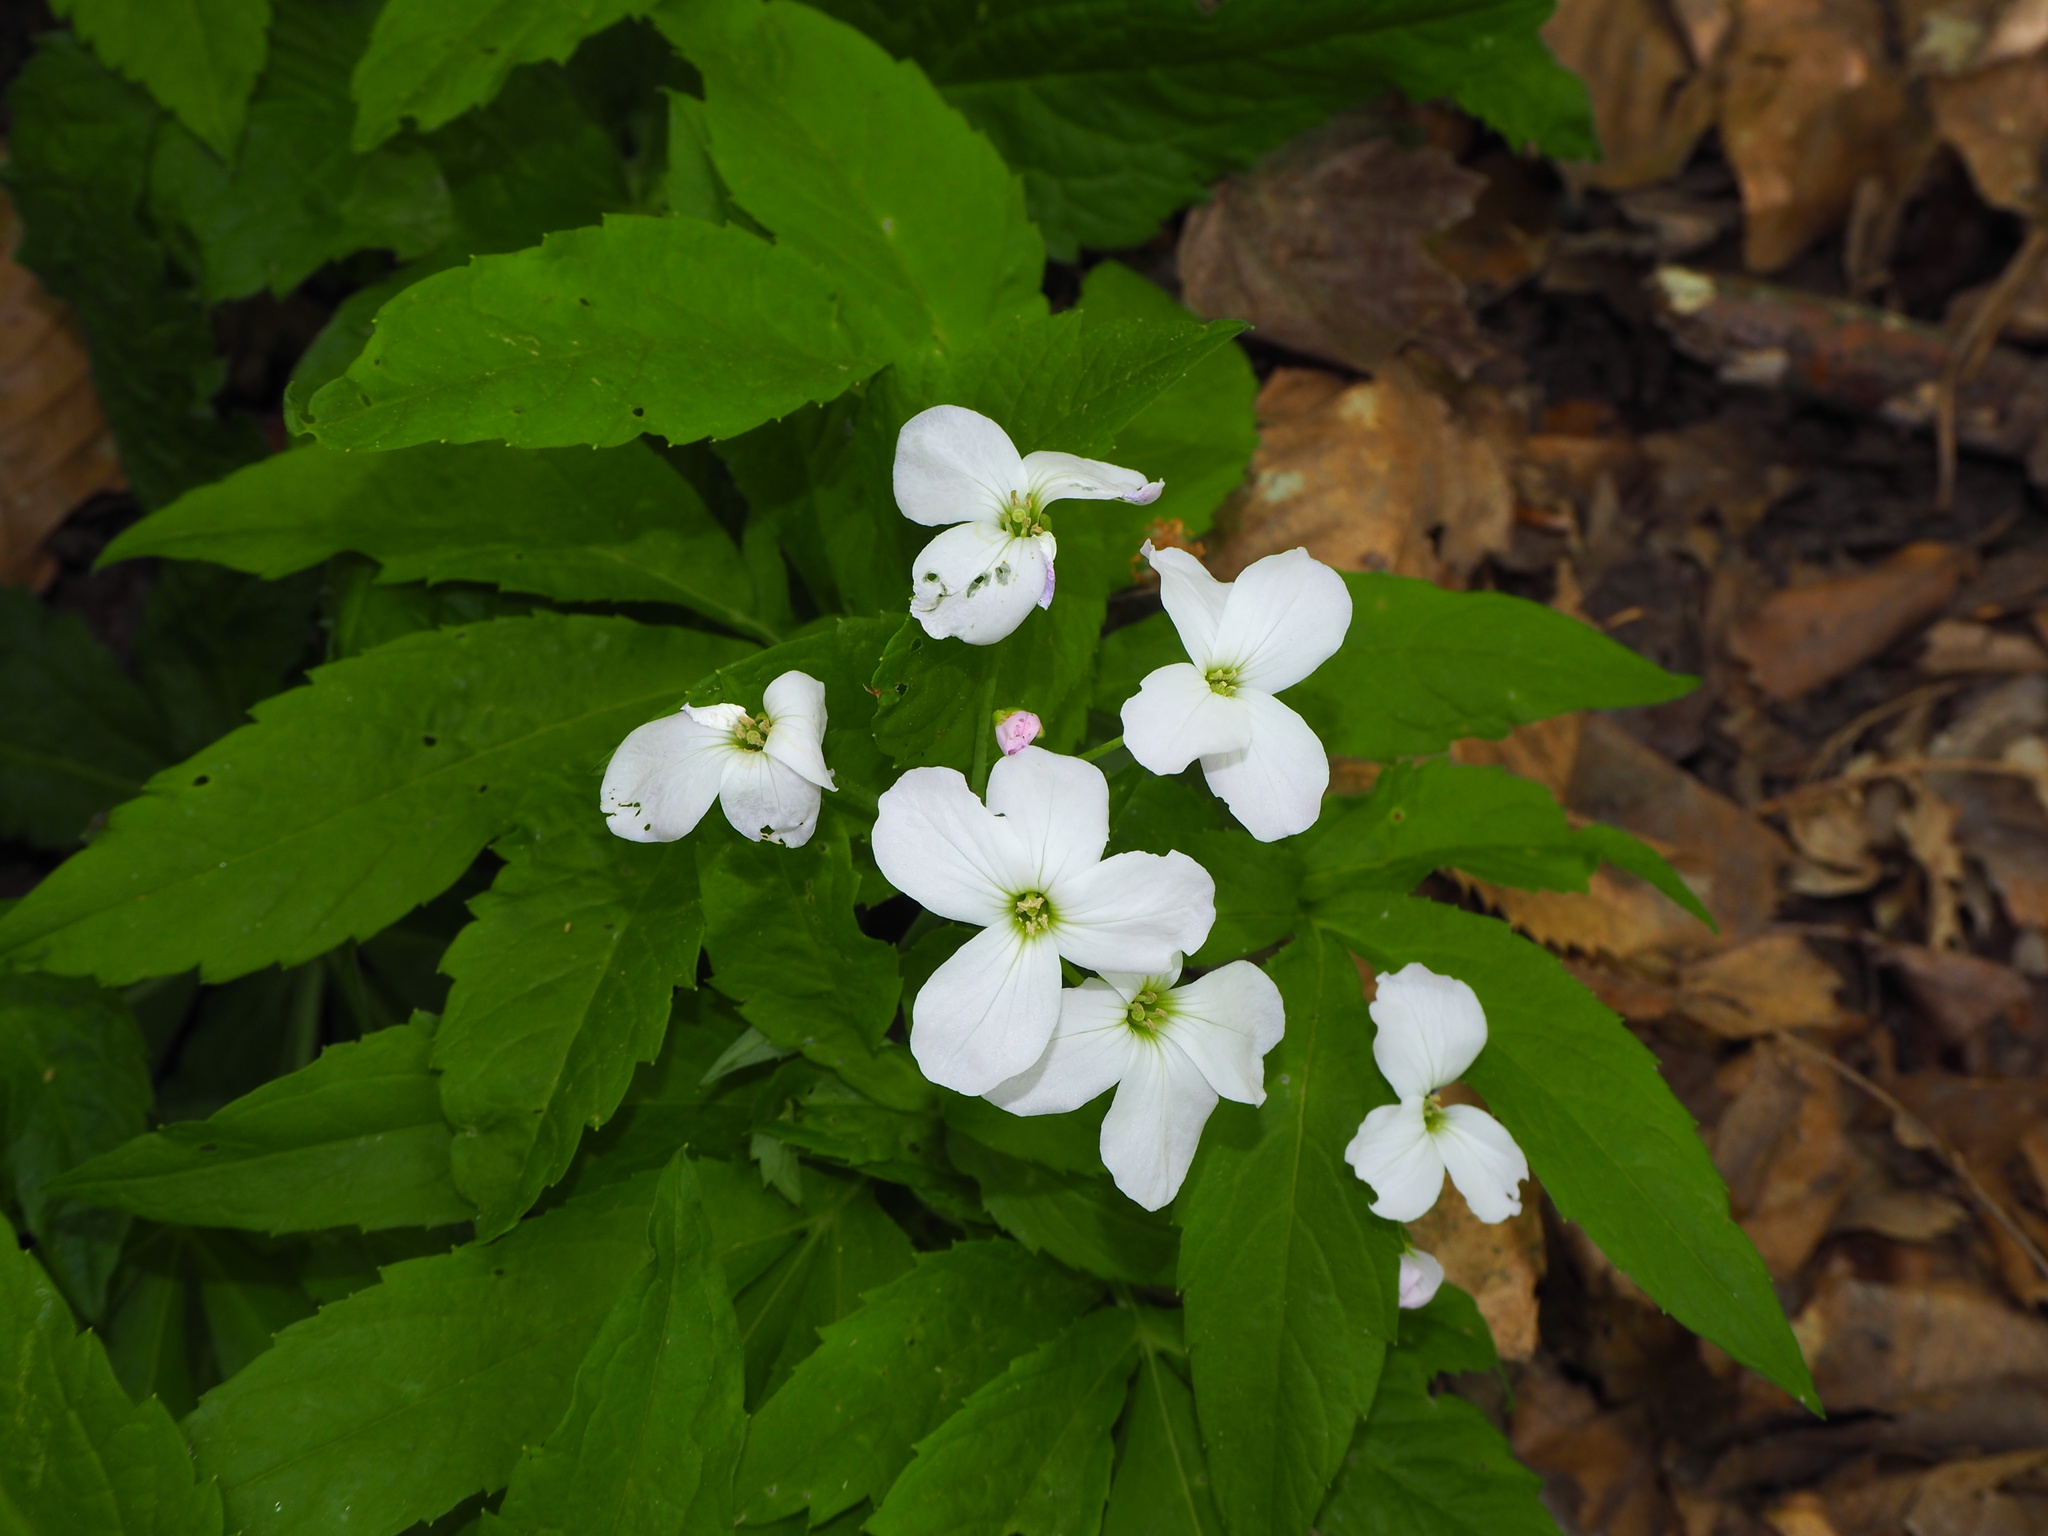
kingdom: Plantae
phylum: Tracheophyta
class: Magnoliopsida
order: Brassicales
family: Brassicaceae
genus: Cardamine
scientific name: Cardamine heptaphylla
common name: Pinnate coralroot
